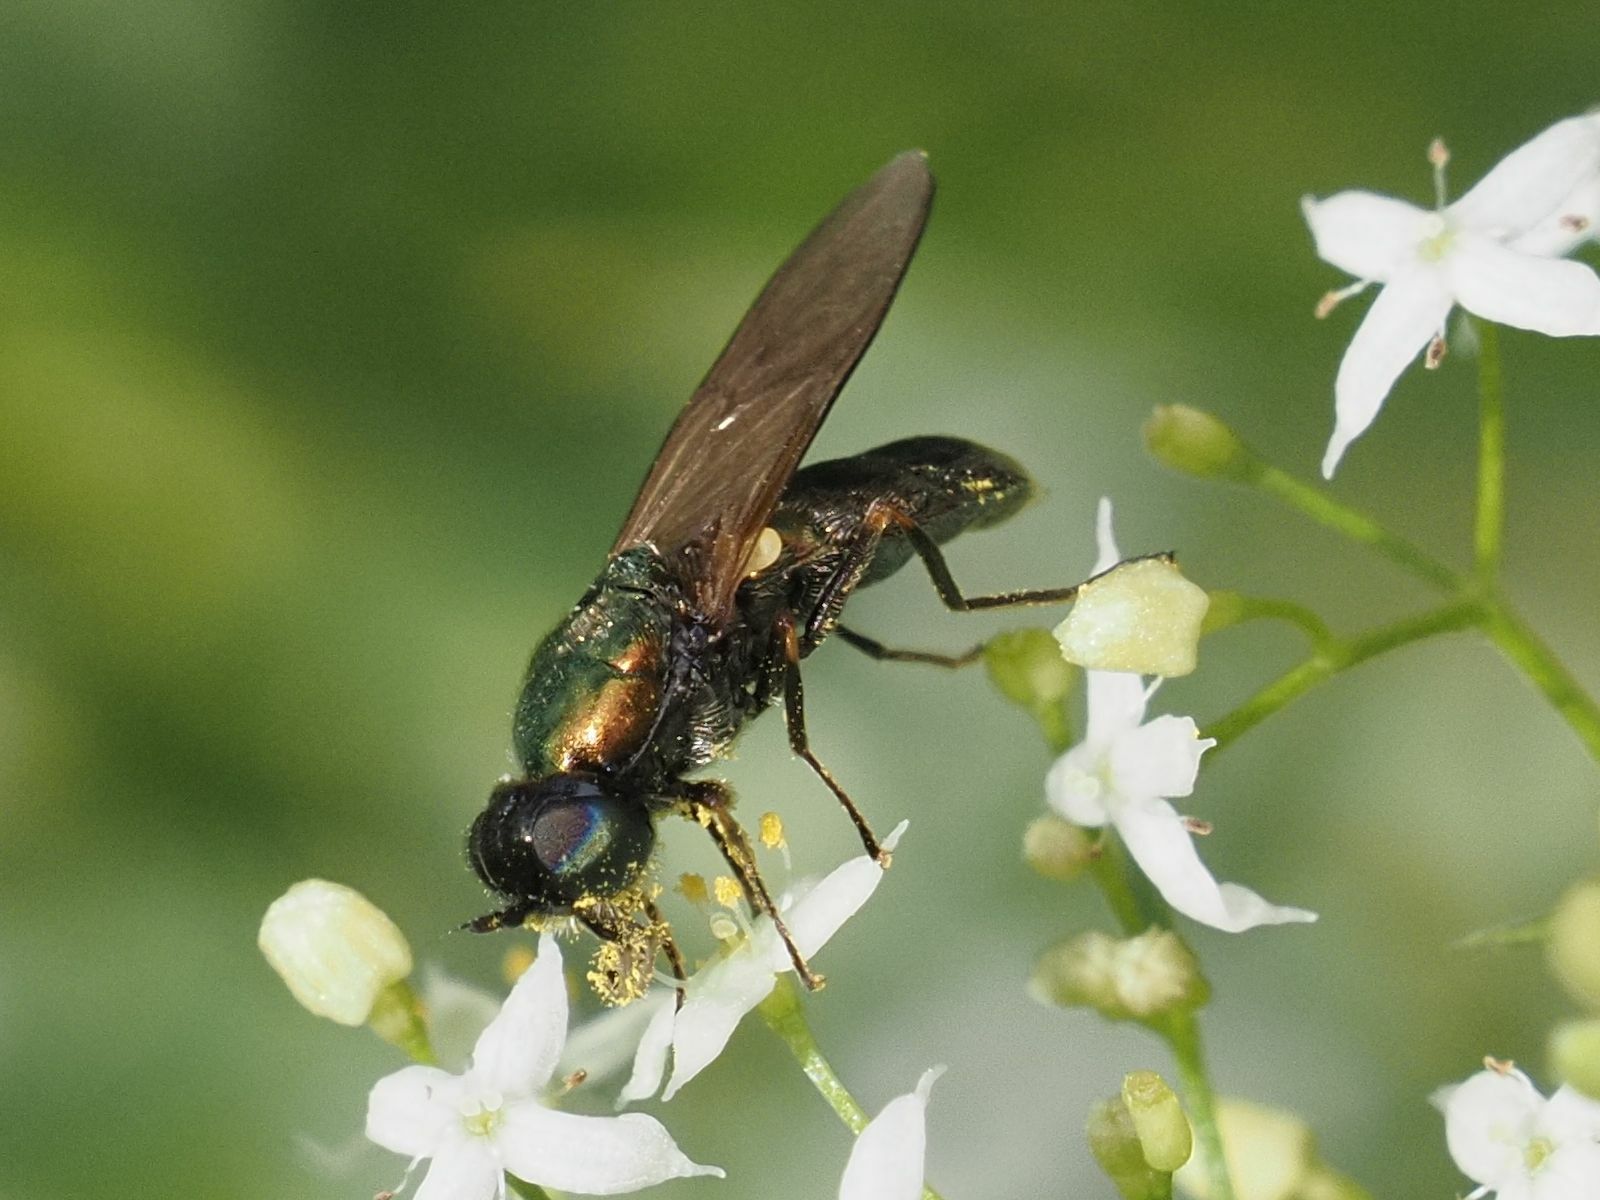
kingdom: Animalia
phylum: Arthropoda
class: Insecta
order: Diptera
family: Stratiomyidae
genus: Chloromyia
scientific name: Chloromyia formosa
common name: Soldier fly
